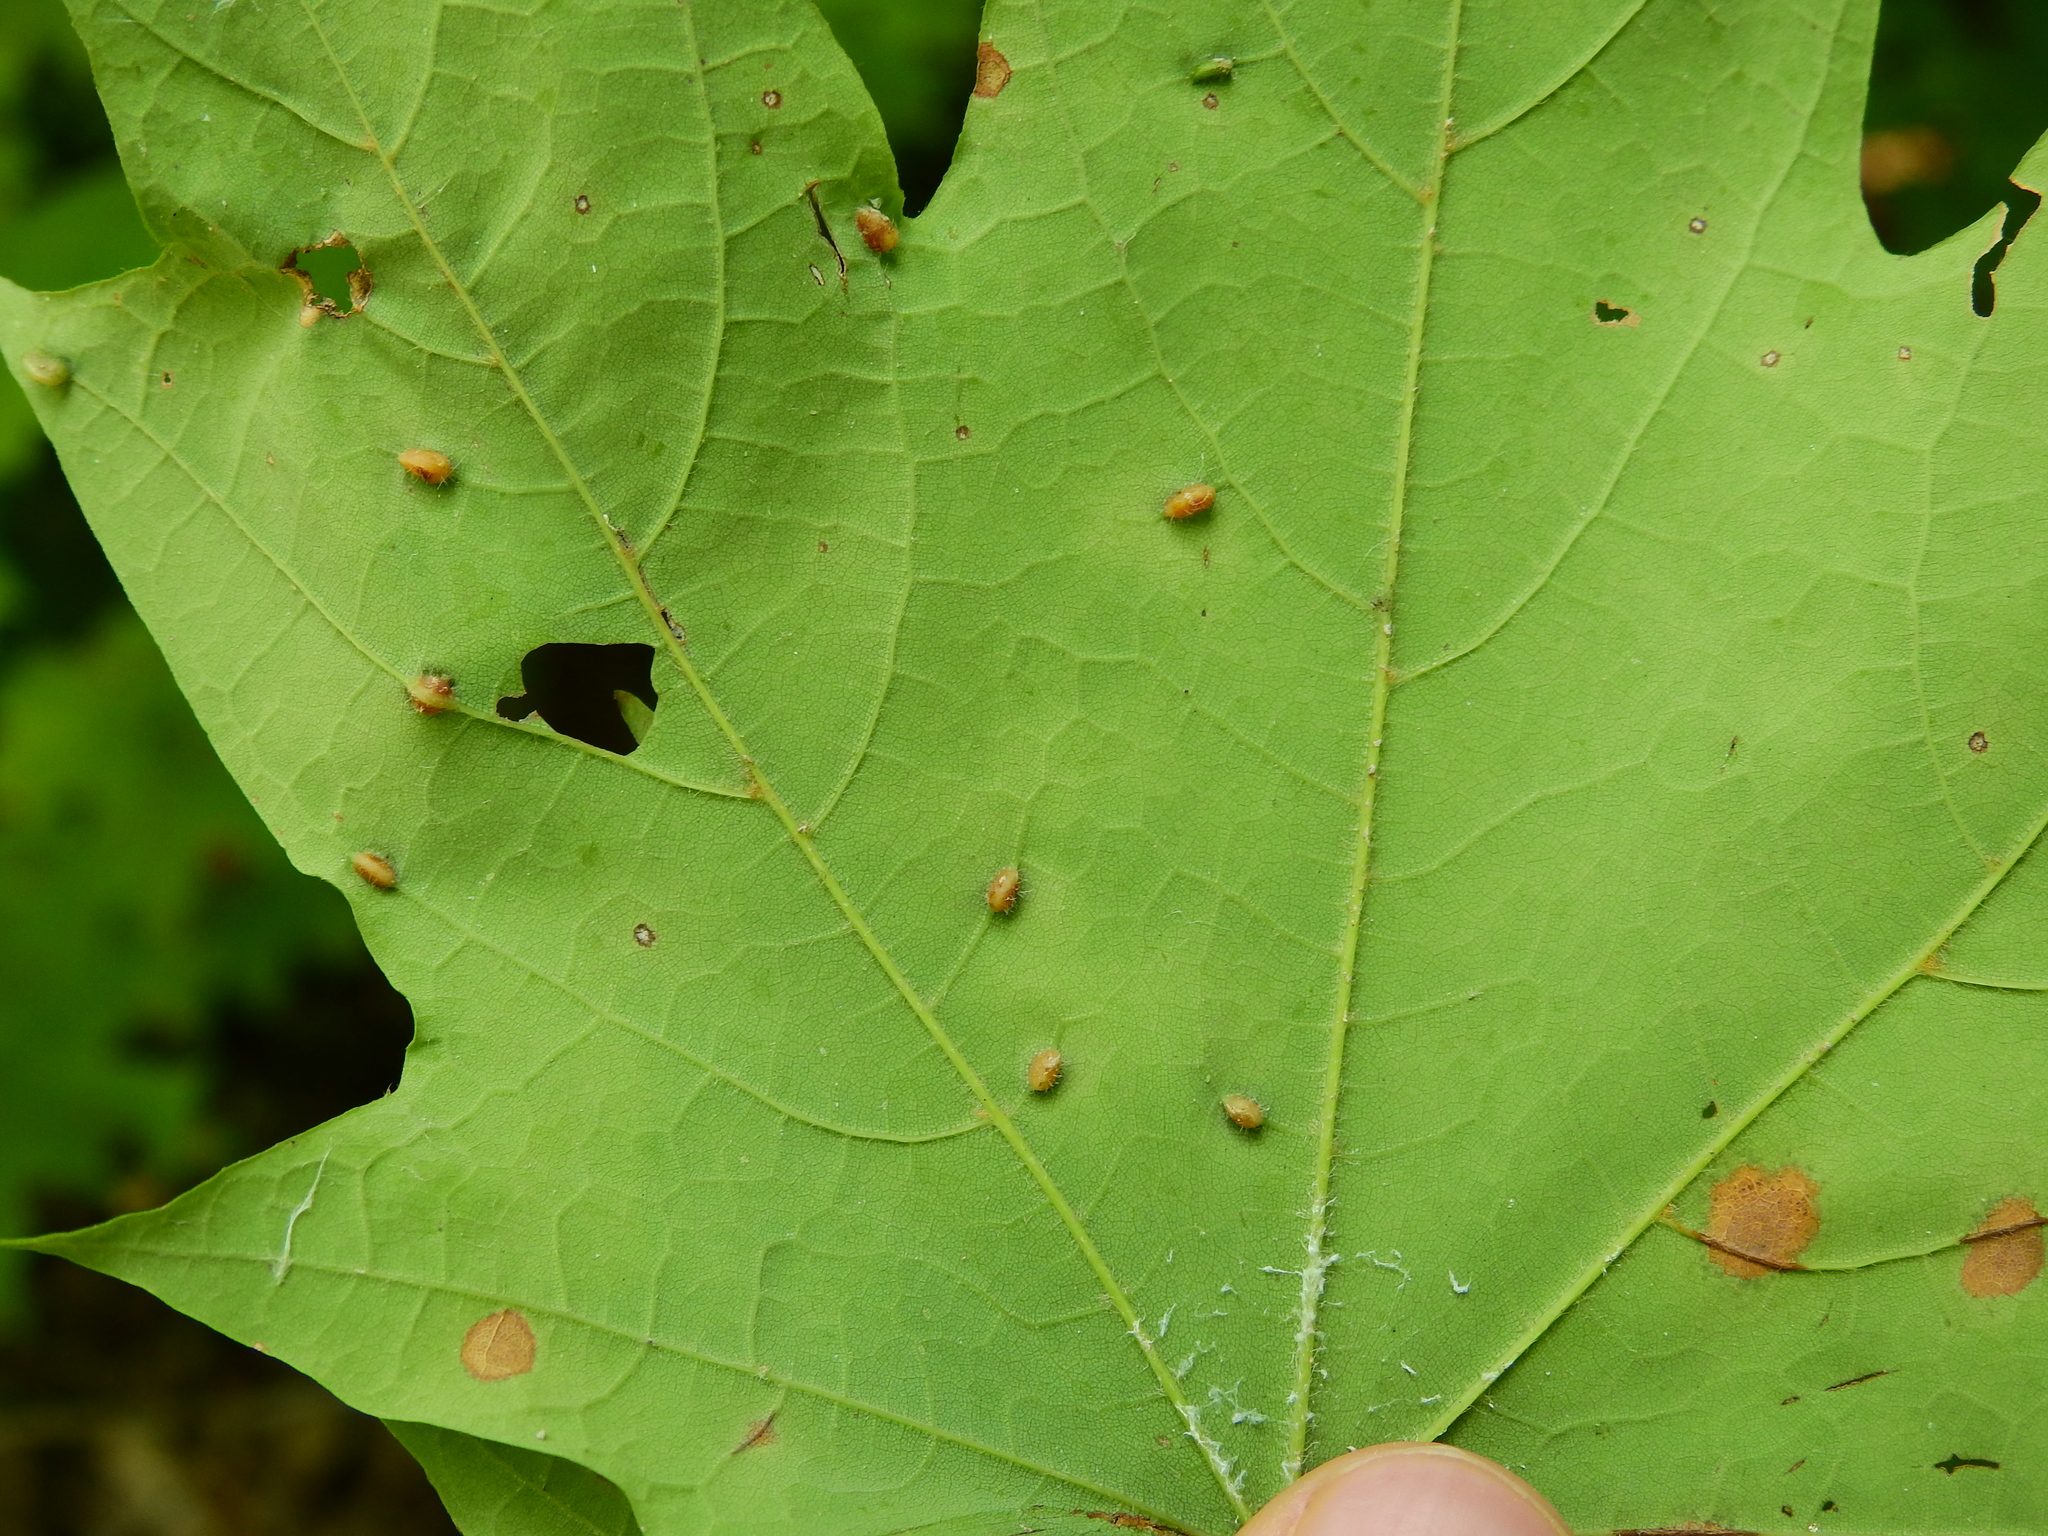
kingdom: Animalia
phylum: Arthropoda
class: Insecta
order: Diptera
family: Cecidomyiidae
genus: Dasineura
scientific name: Dasineura communis
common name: Gouty vein midge
